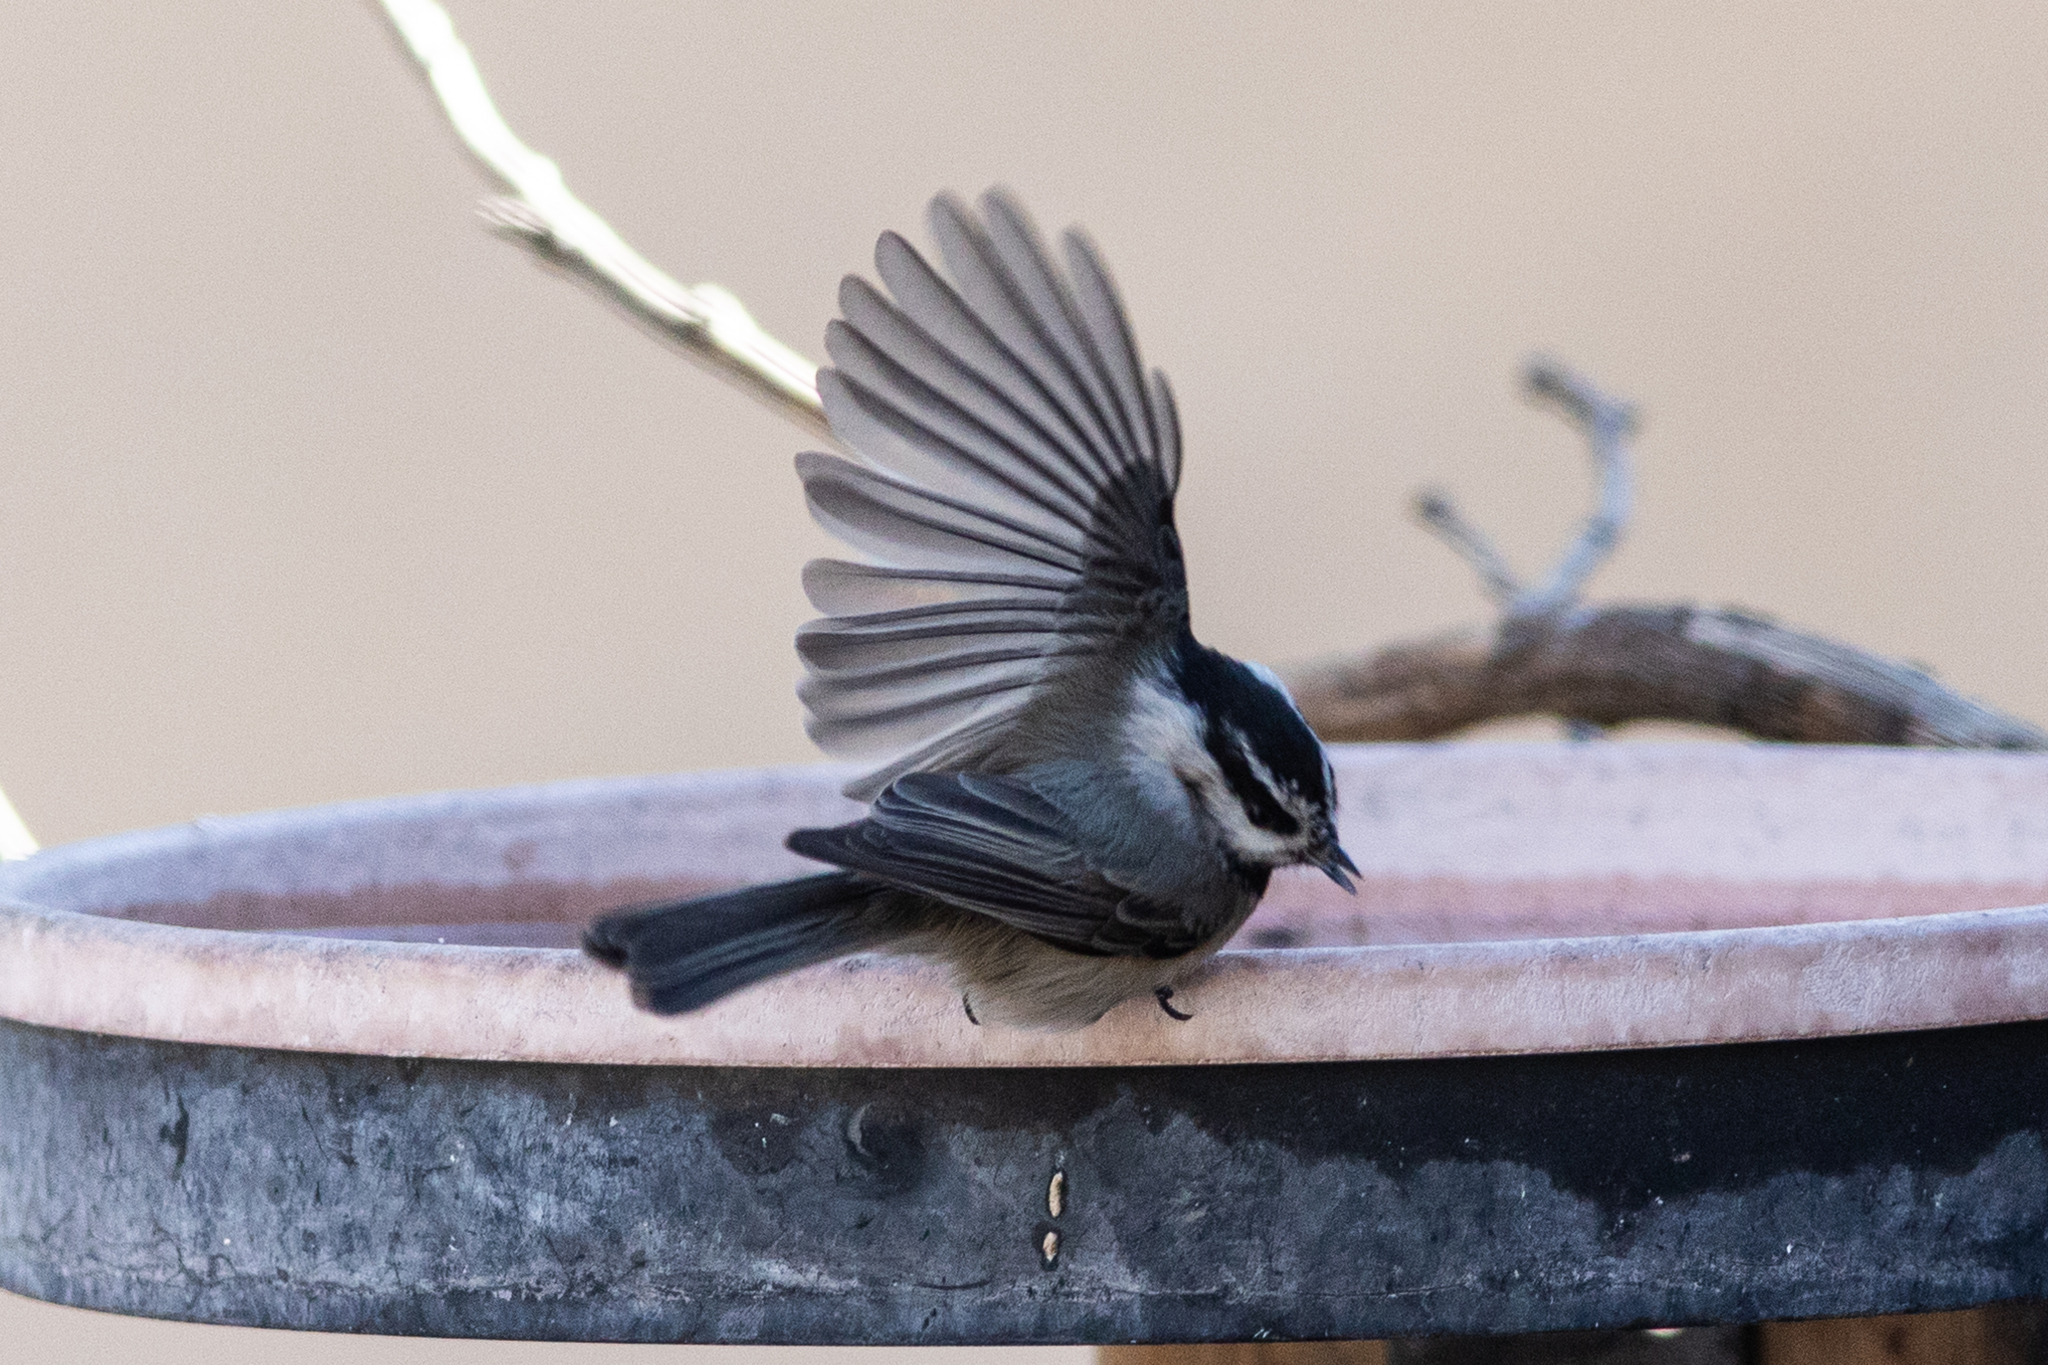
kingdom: Animalia
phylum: Chordata
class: Aves
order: Passeriformes
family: Paridae
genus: Poecile
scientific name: Poecile gambeli
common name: Mountain chickadee
